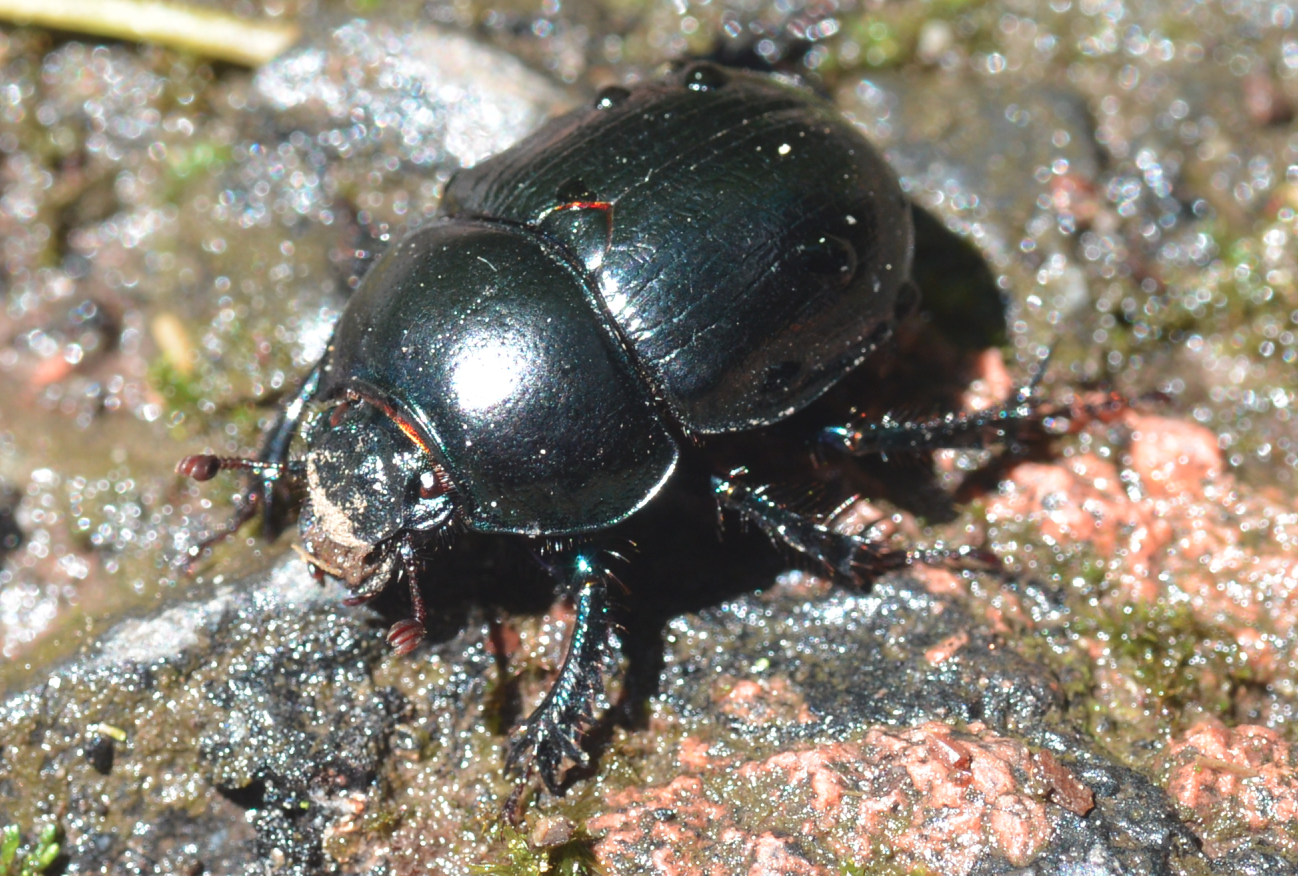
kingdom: Animalia
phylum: Arthropoda
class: Insecta
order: Coleoptera
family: Geotrupidae
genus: Anoplotrupes
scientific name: Anoplotrupes stercorosus
